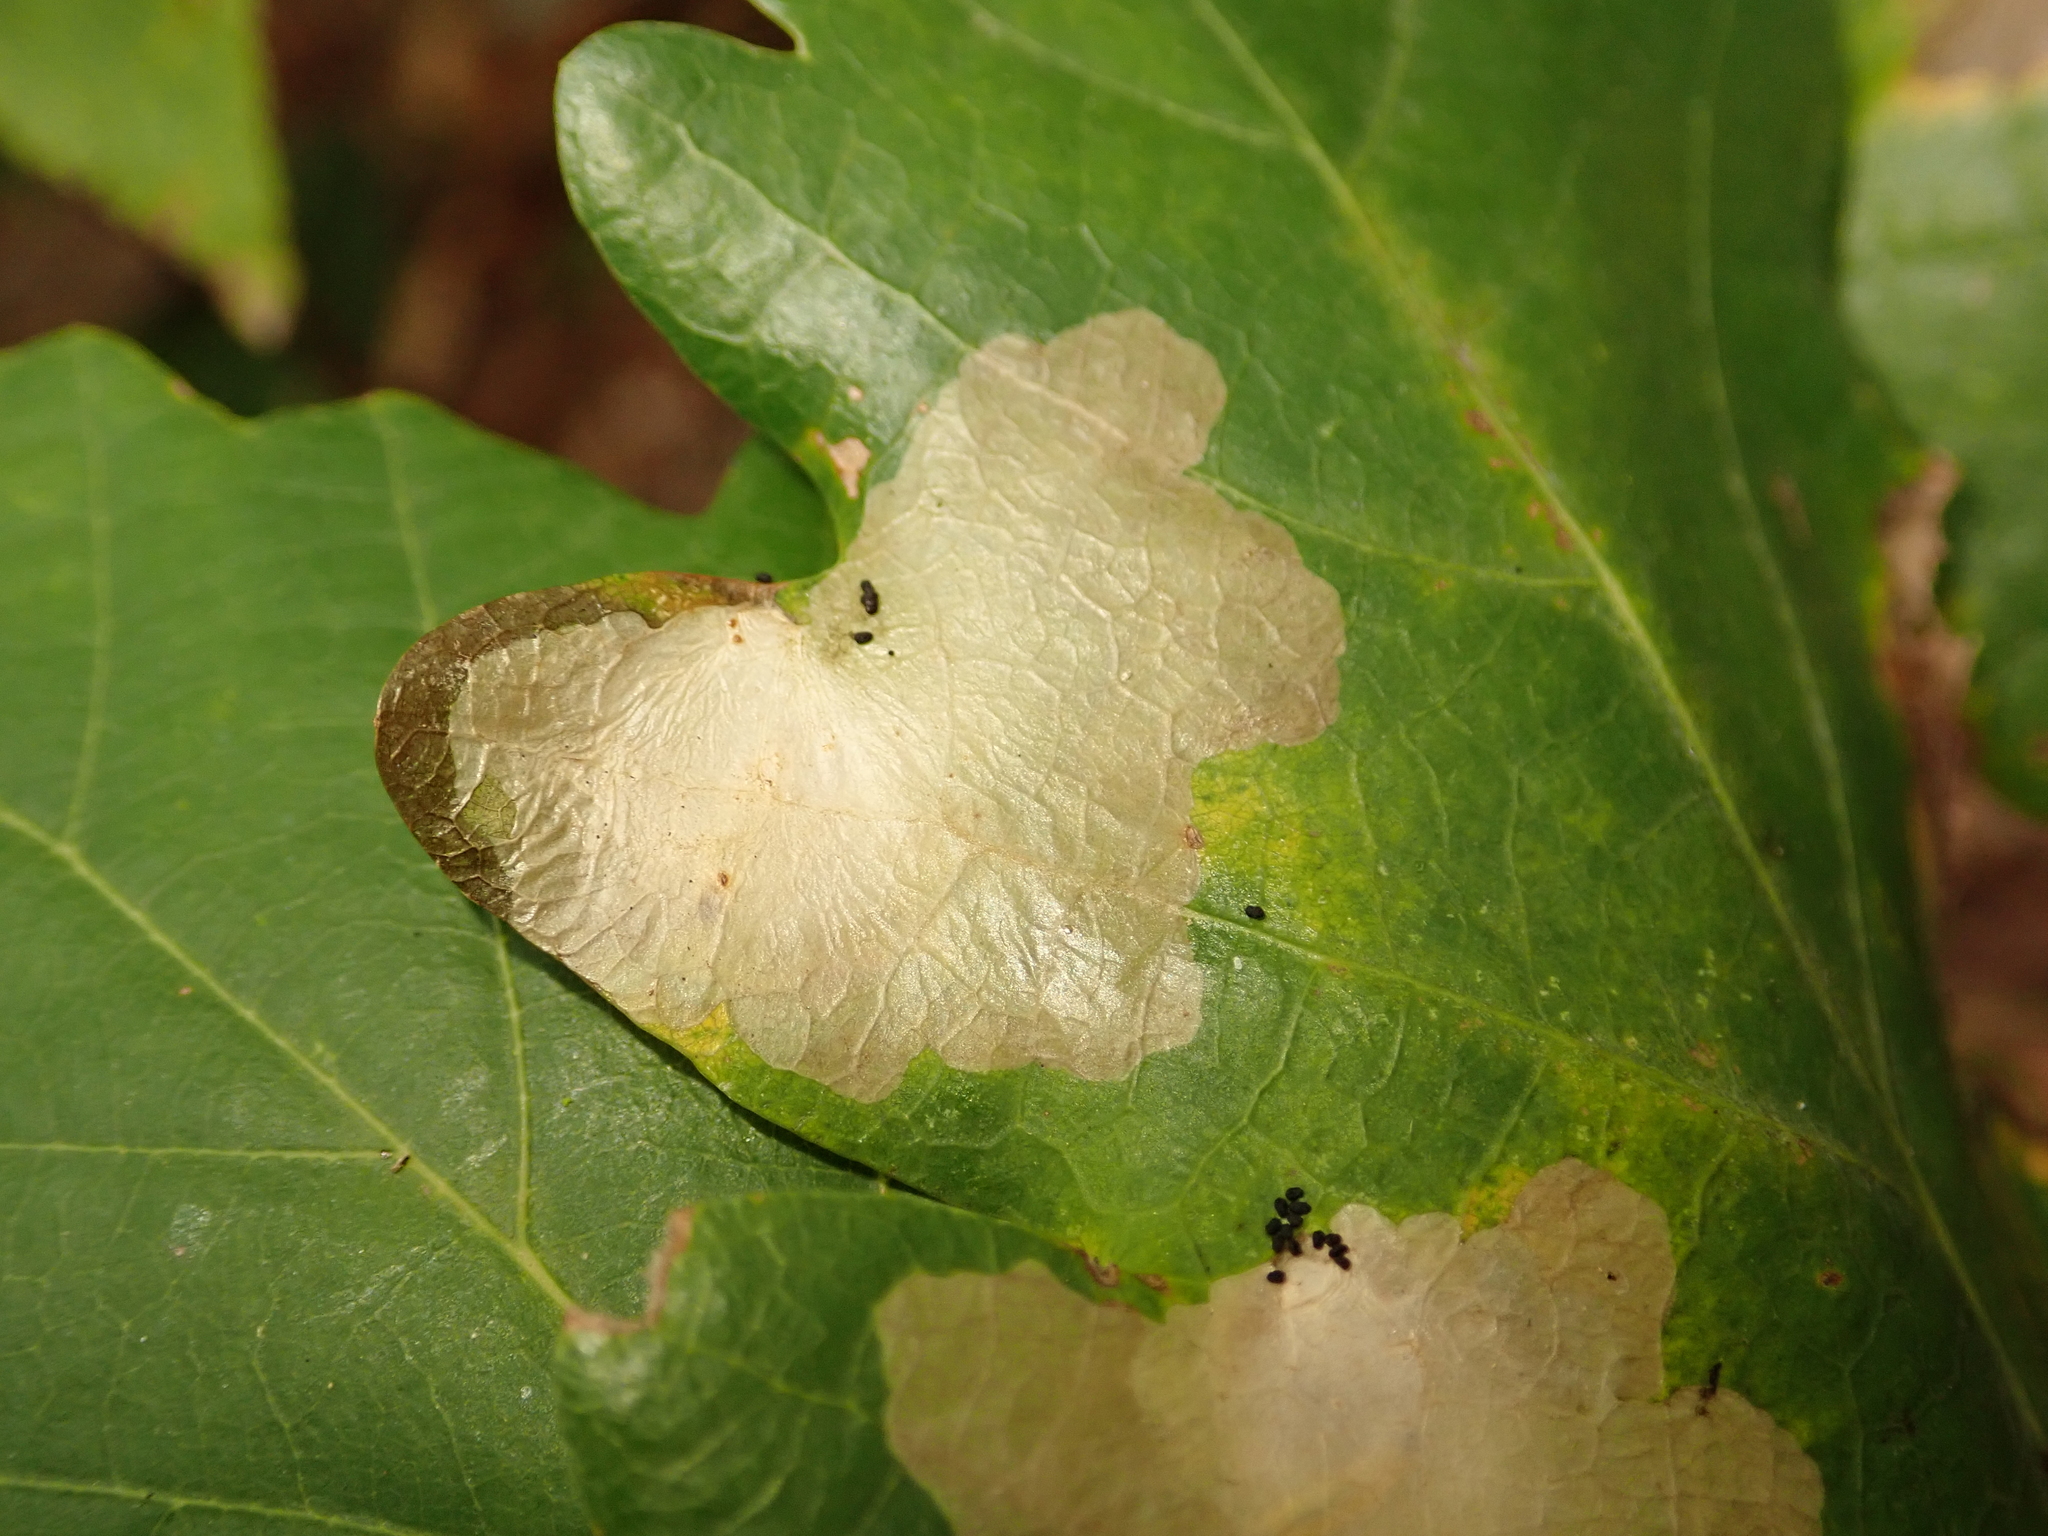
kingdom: Animalia
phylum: Arthropoda
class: Insecta
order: Lepidoptera
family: Tischeriidae
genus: Tischeria
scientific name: Tischeria ekebladella
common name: Oak carl
